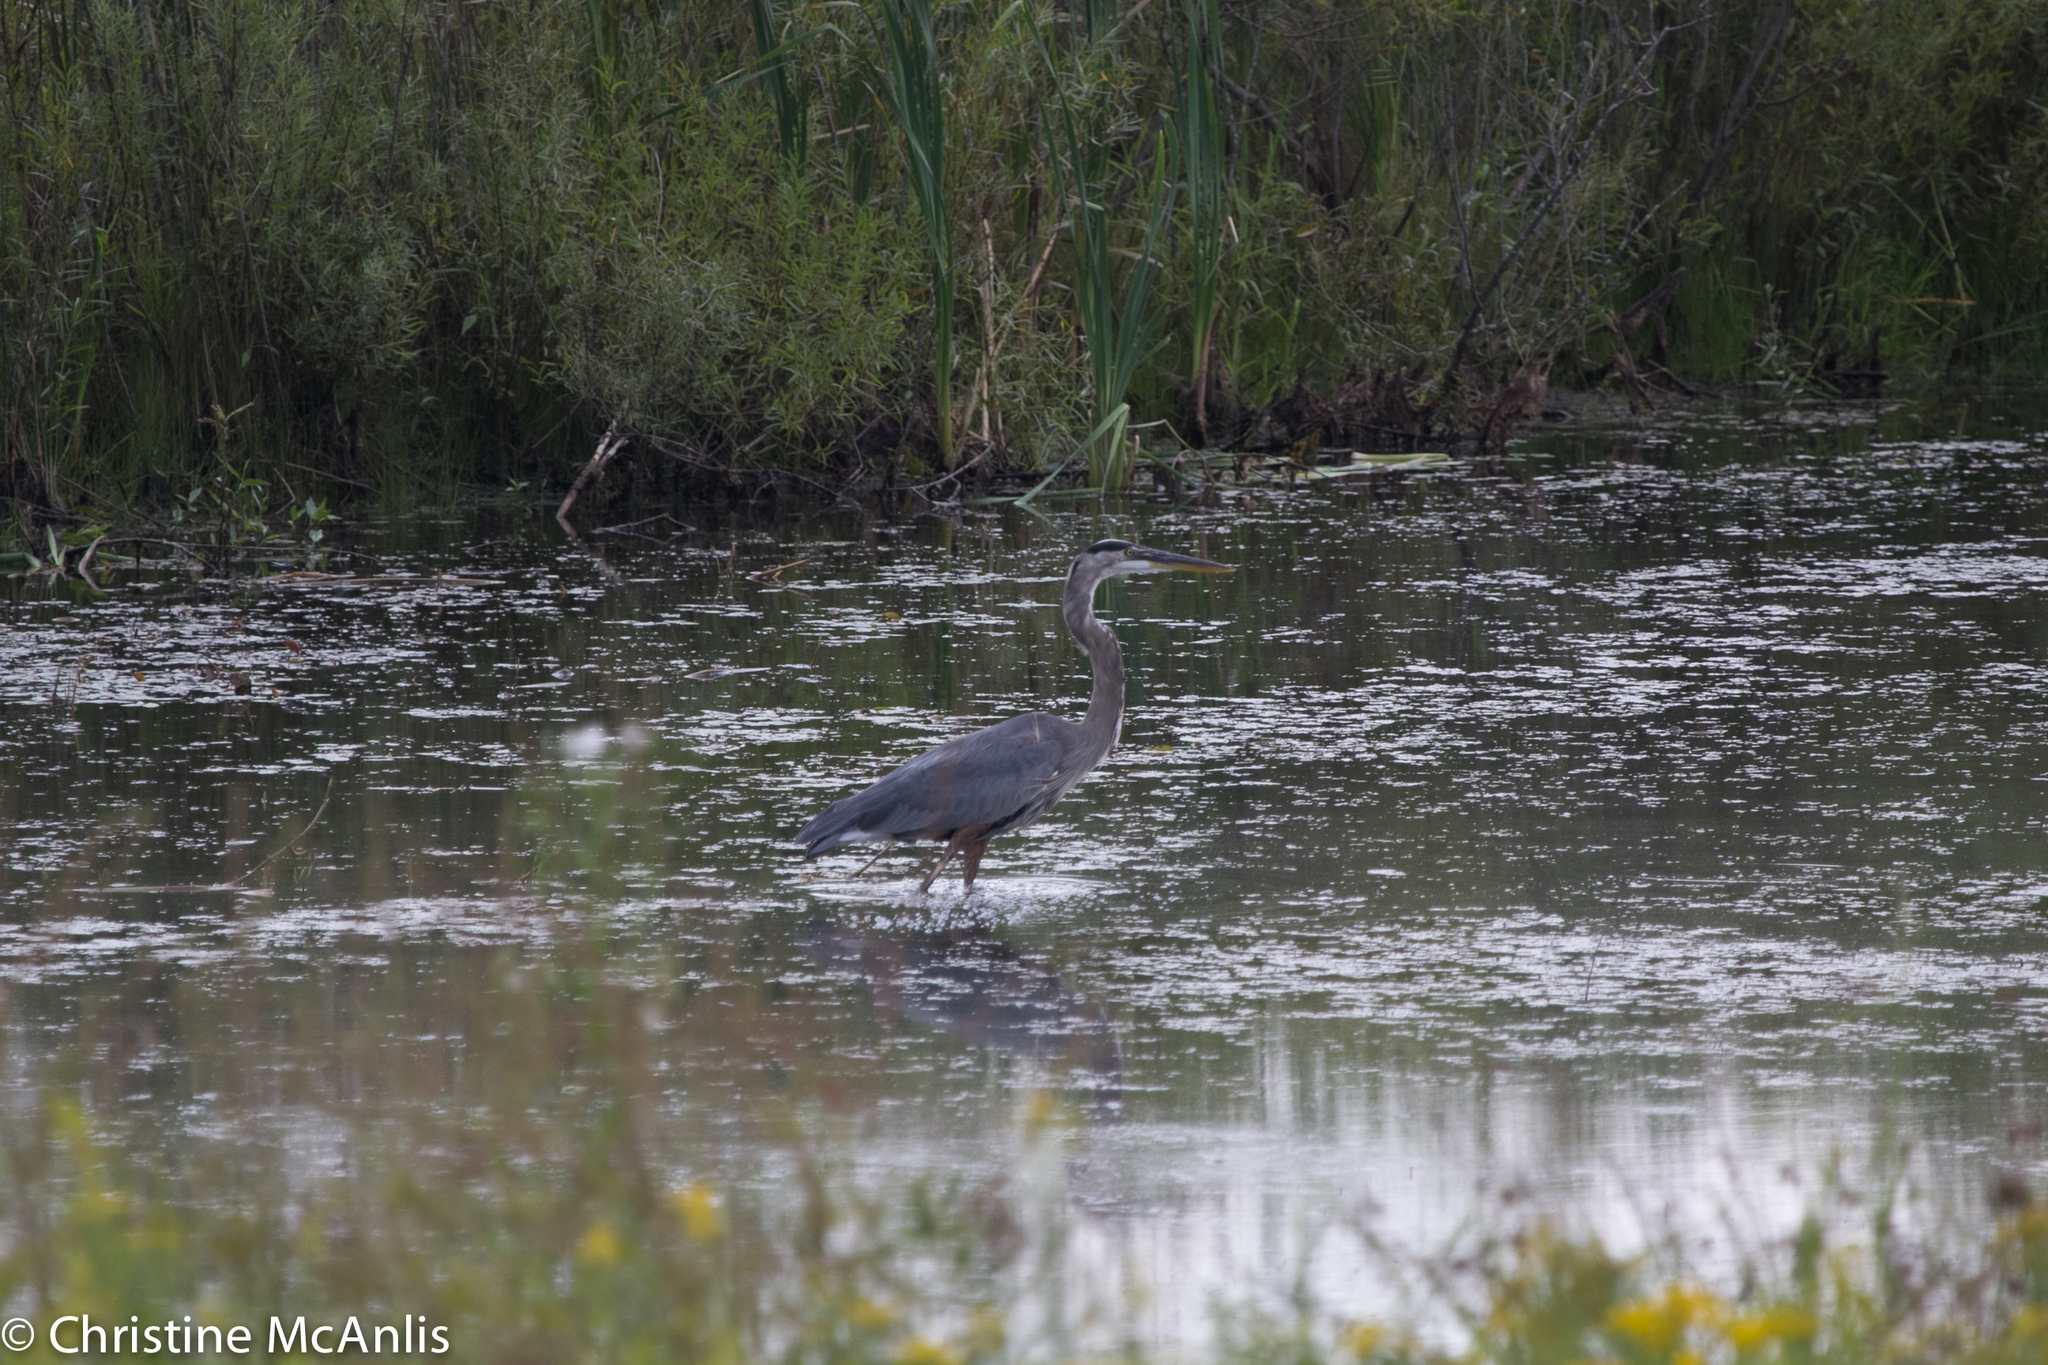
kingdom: Animalia
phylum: Chordata
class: Aves
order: Pelecaniformes
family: Ardeidae
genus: Ardea
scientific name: Ardea herodias
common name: Great blue heron
